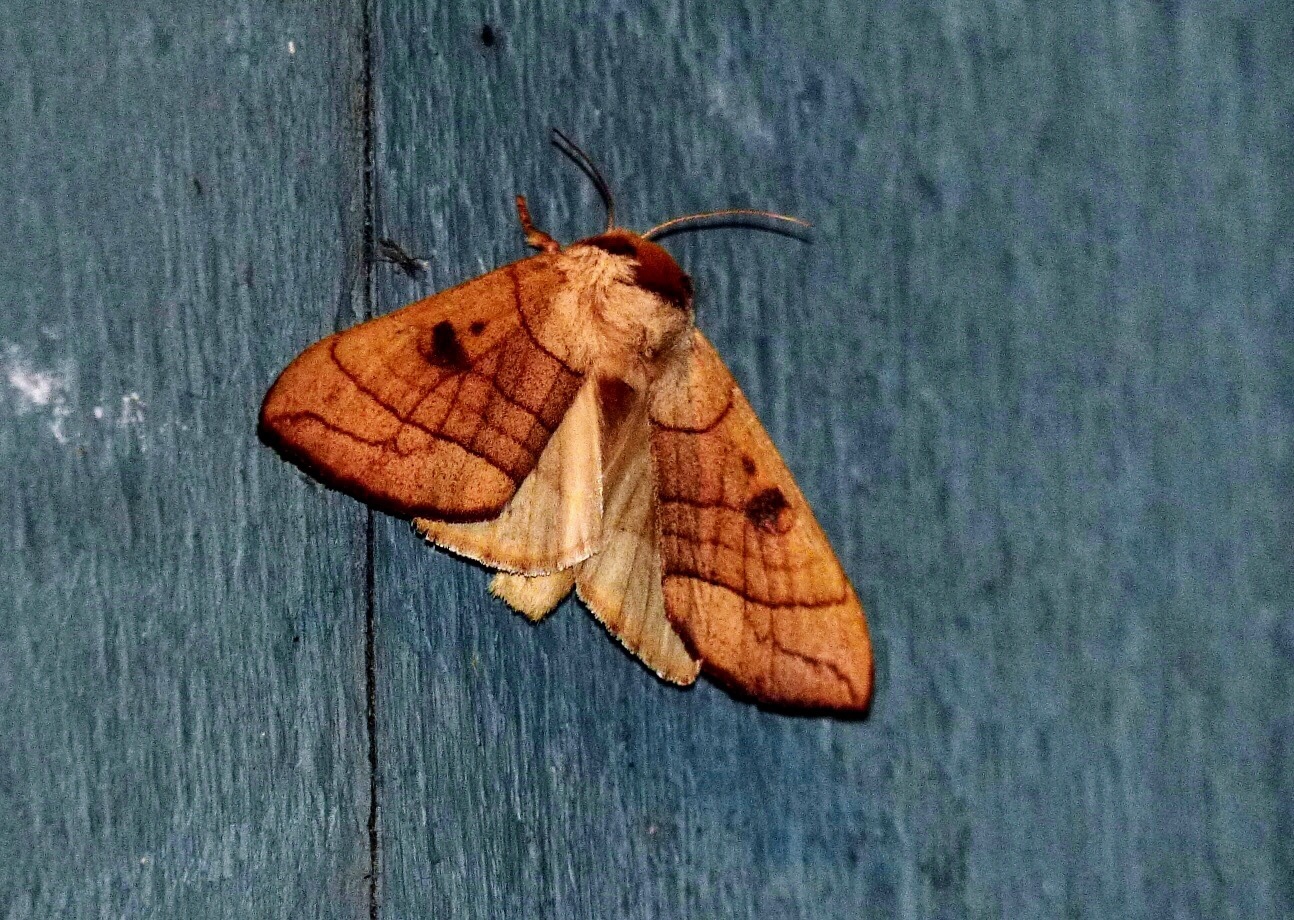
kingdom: Animalia
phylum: Arthropoda
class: Insecta
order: Lepidoptera
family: Notodontidae
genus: Datana
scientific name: Datana perspicua
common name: Spotted datana
